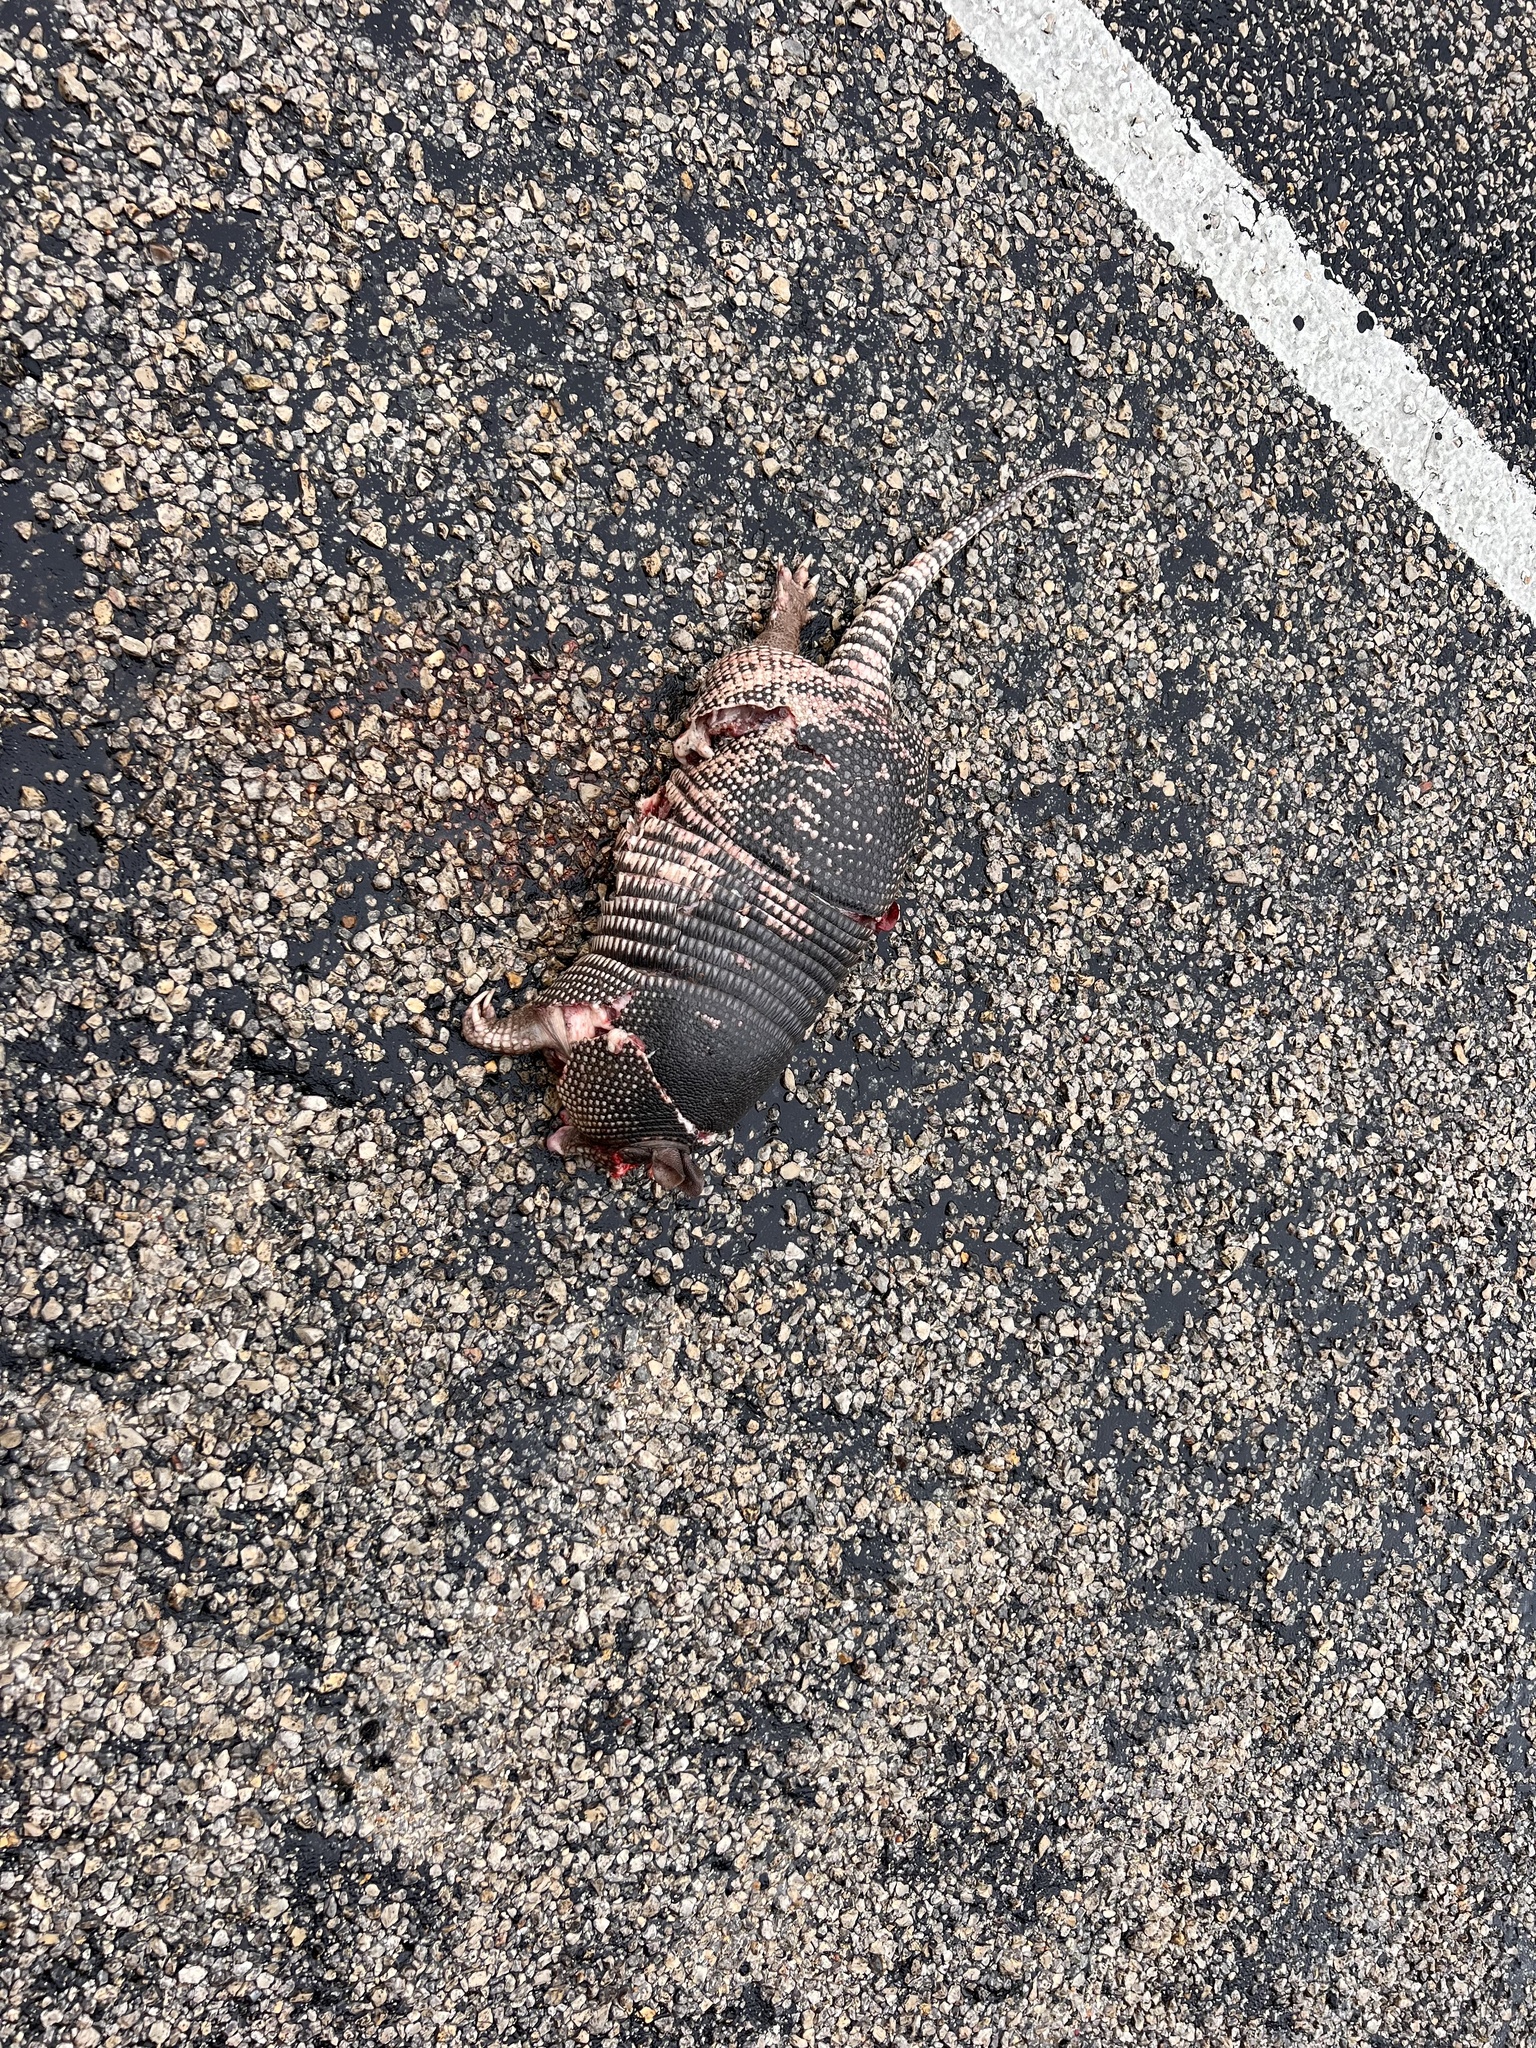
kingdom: Animalia
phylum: Chordata
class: Mammalia
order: Cingulata
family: Dasypodidae
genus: Dasypus
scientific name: Dasypus novemcinctus
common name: Nine-banded armadillo
